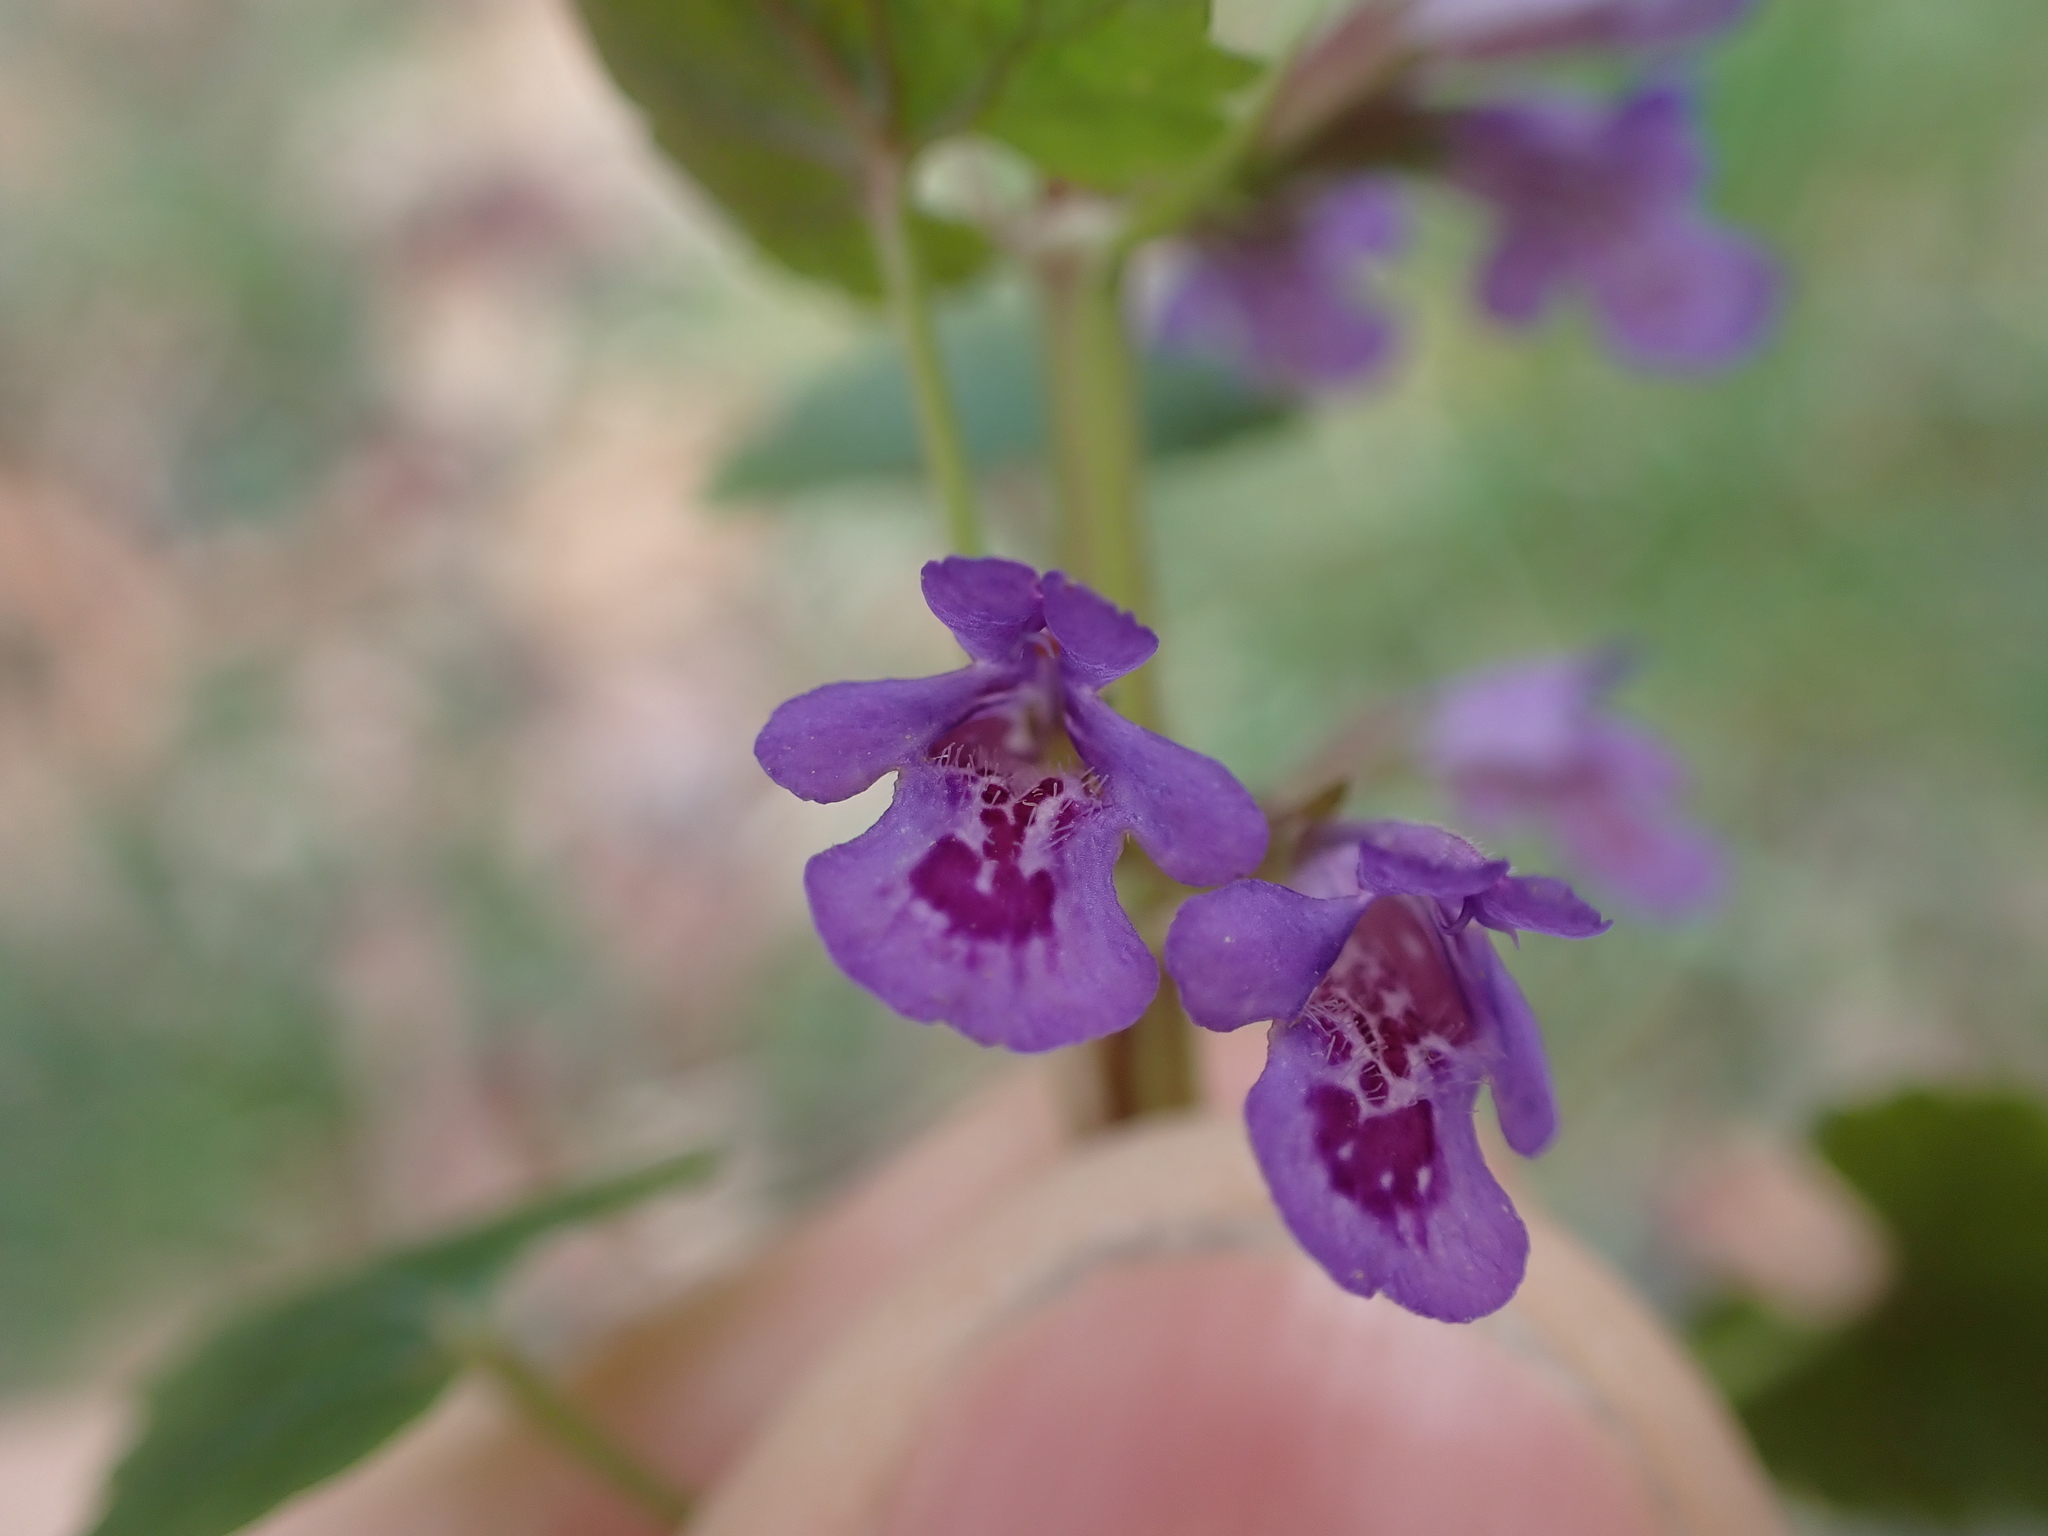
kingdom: Plantae
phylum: Tracheophyta
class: Magnoliopsida
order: Lamiales
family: Lamiaceae
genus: Glechoma
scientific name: Glechoma hederacea
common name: Ground ivy
